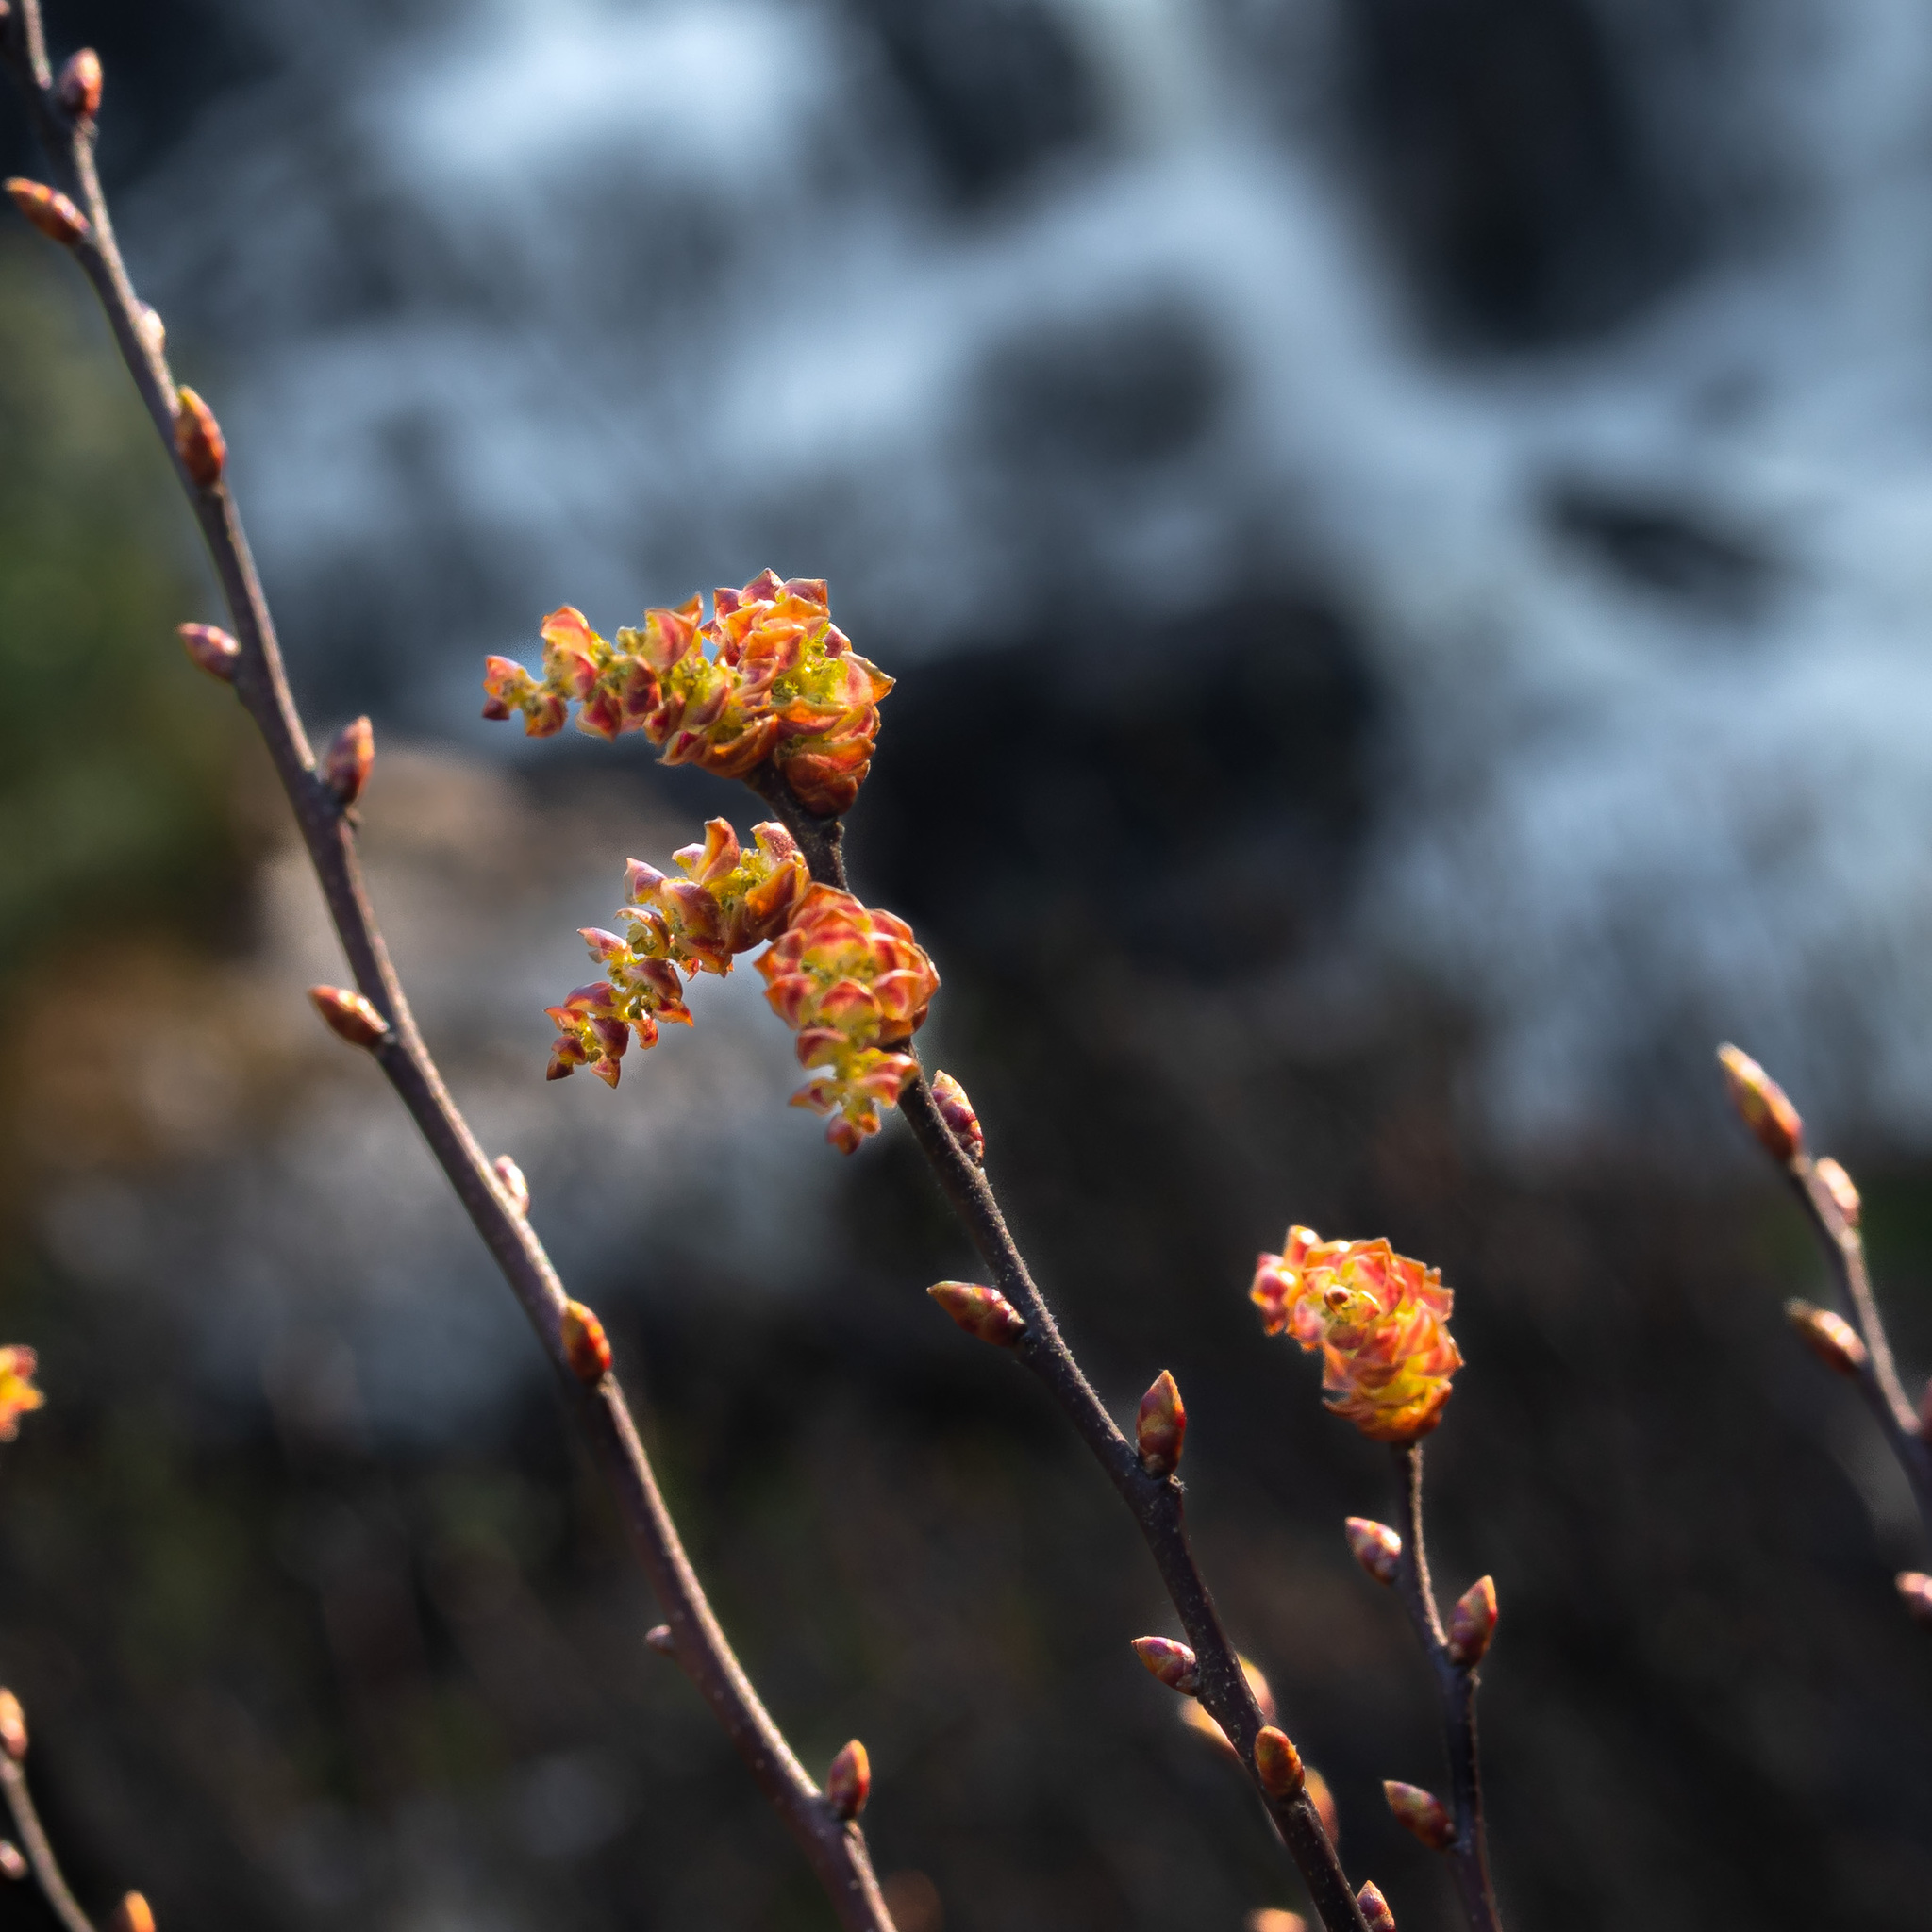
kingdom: Plantae
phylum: Tracheophyta
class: Magnoliopsida
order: Fagales
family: Myricaceae
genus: Myrica
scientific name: Myrica gale
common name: Sweet gale
